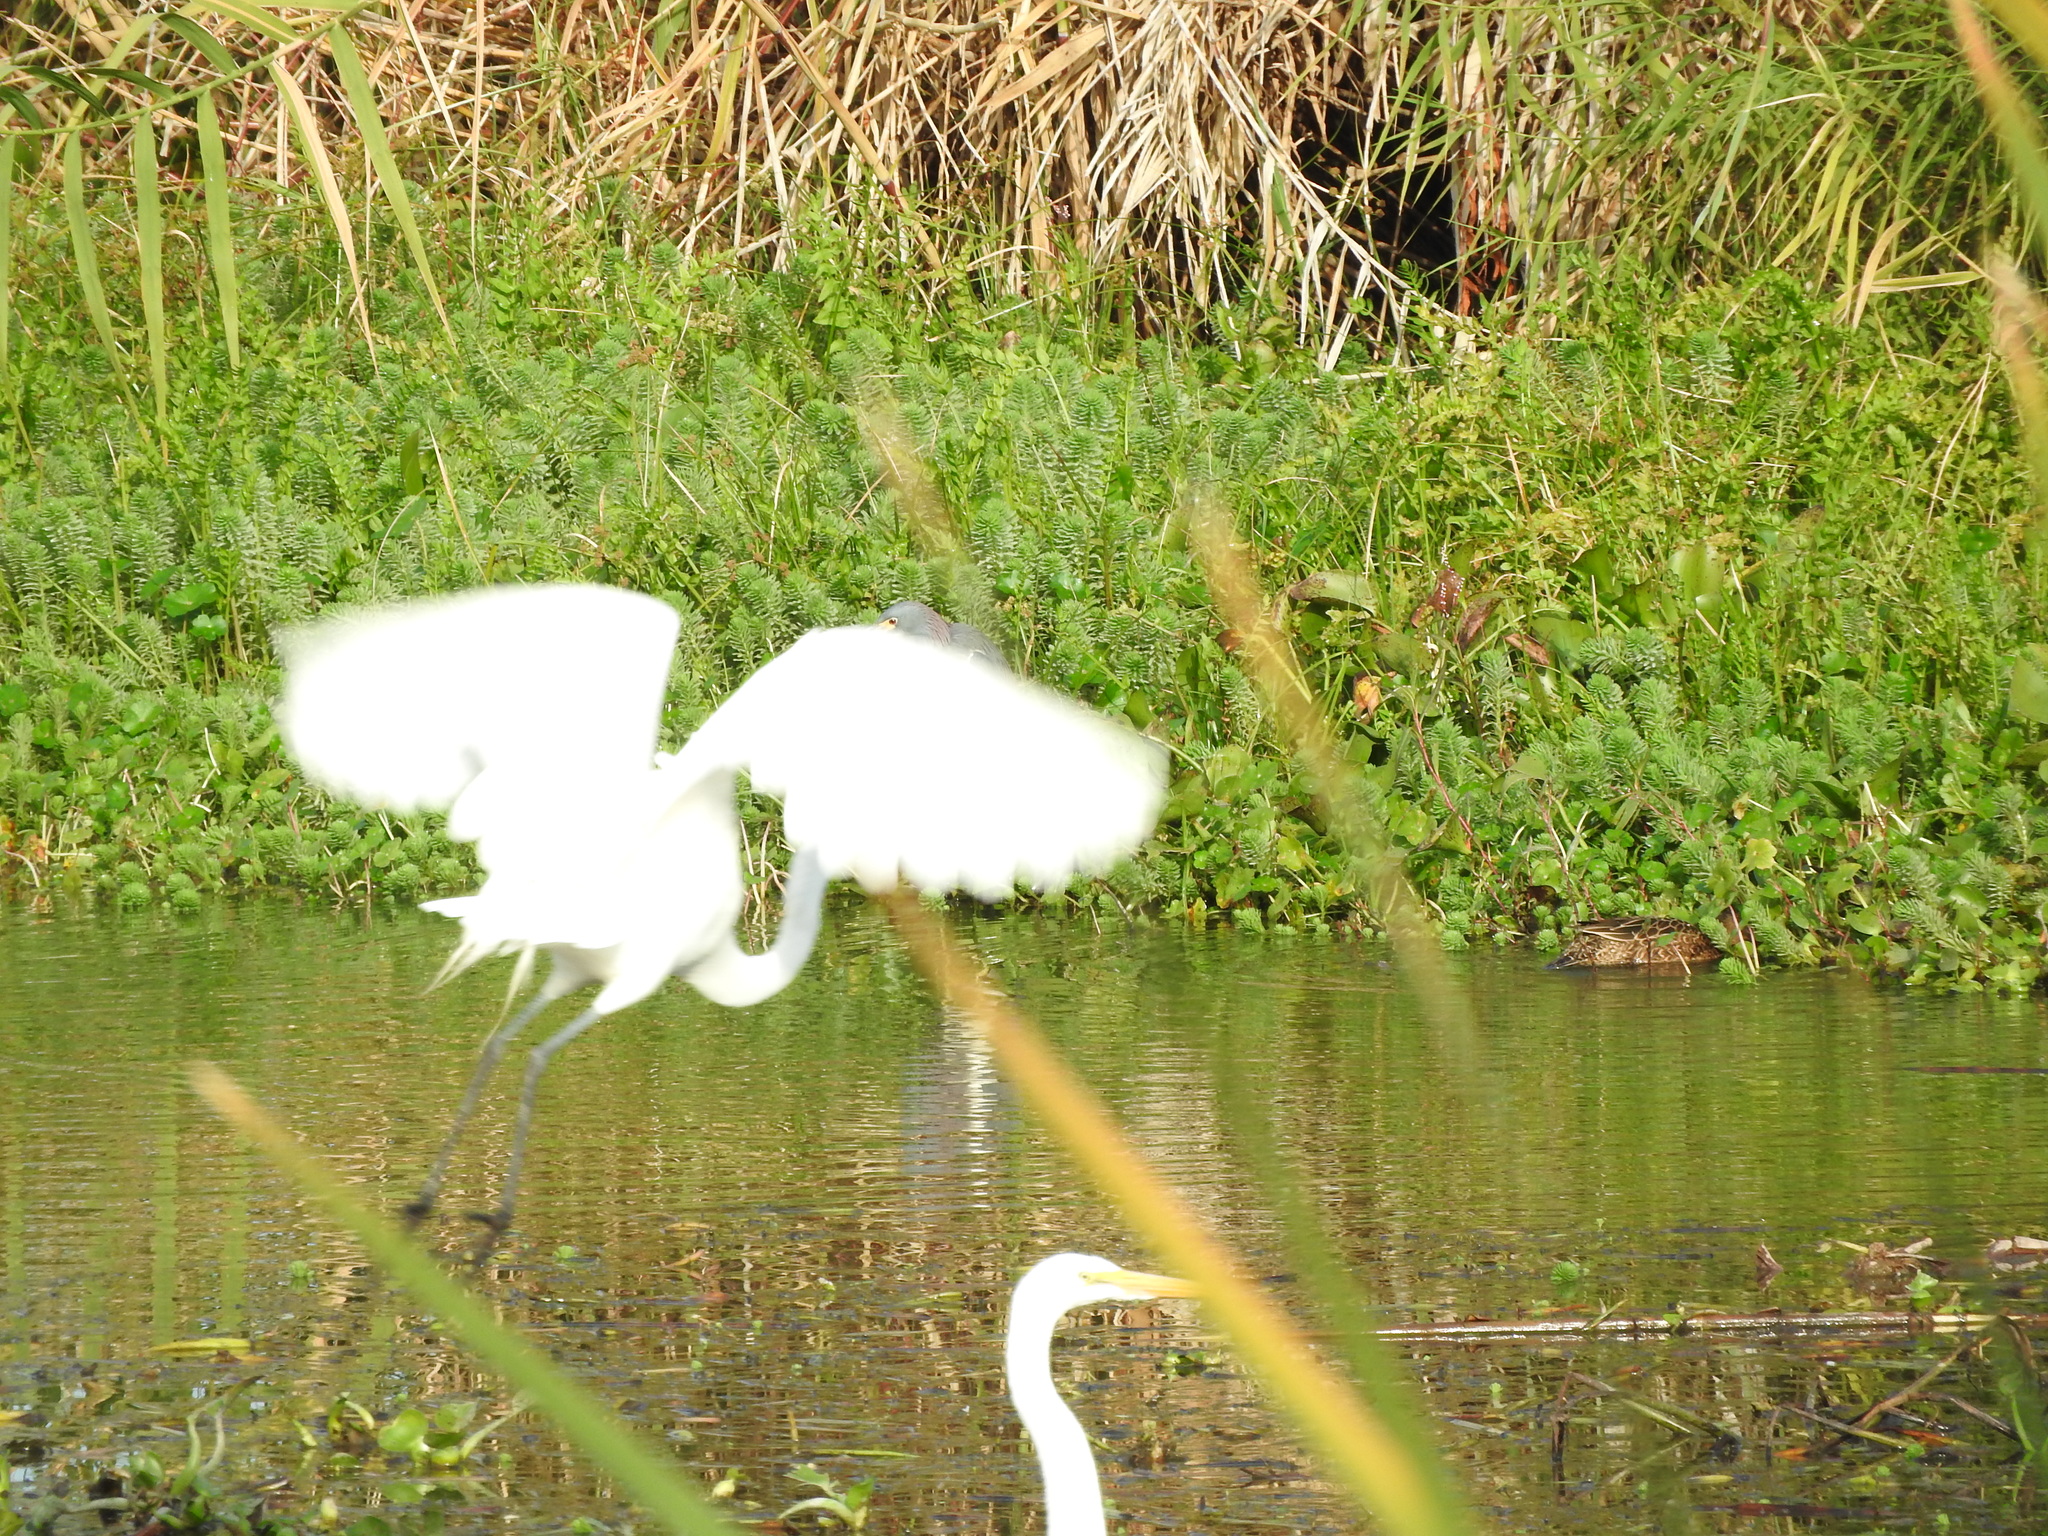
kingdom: Animalia
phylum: Chordata
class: Aves
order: Pelecaniformes
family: Ardeidae
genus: Ardea
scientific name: Ardea alba
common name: Great egret
